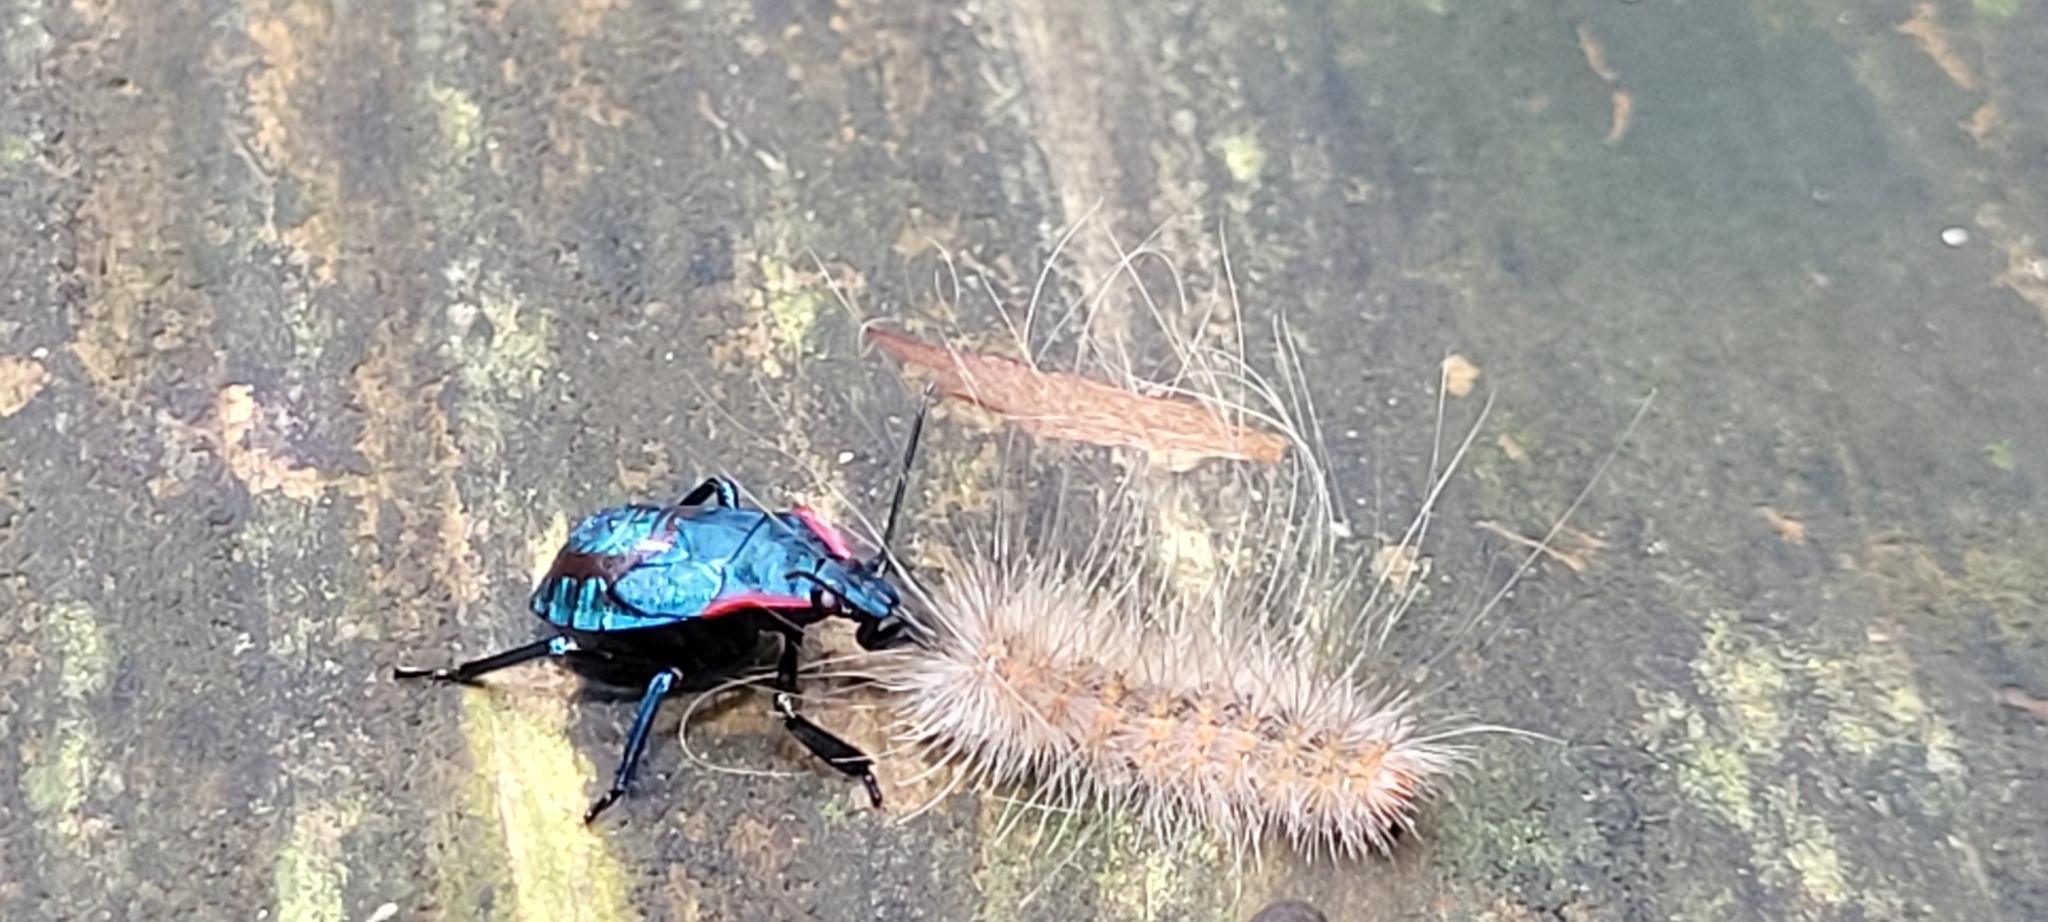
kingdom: Animalia
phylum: Arthropoda
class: Insecta
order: Hemiptera
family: Pentatomidae
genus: Alcaeorrhynchus
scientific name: Alcaeorrhynchus grandis
